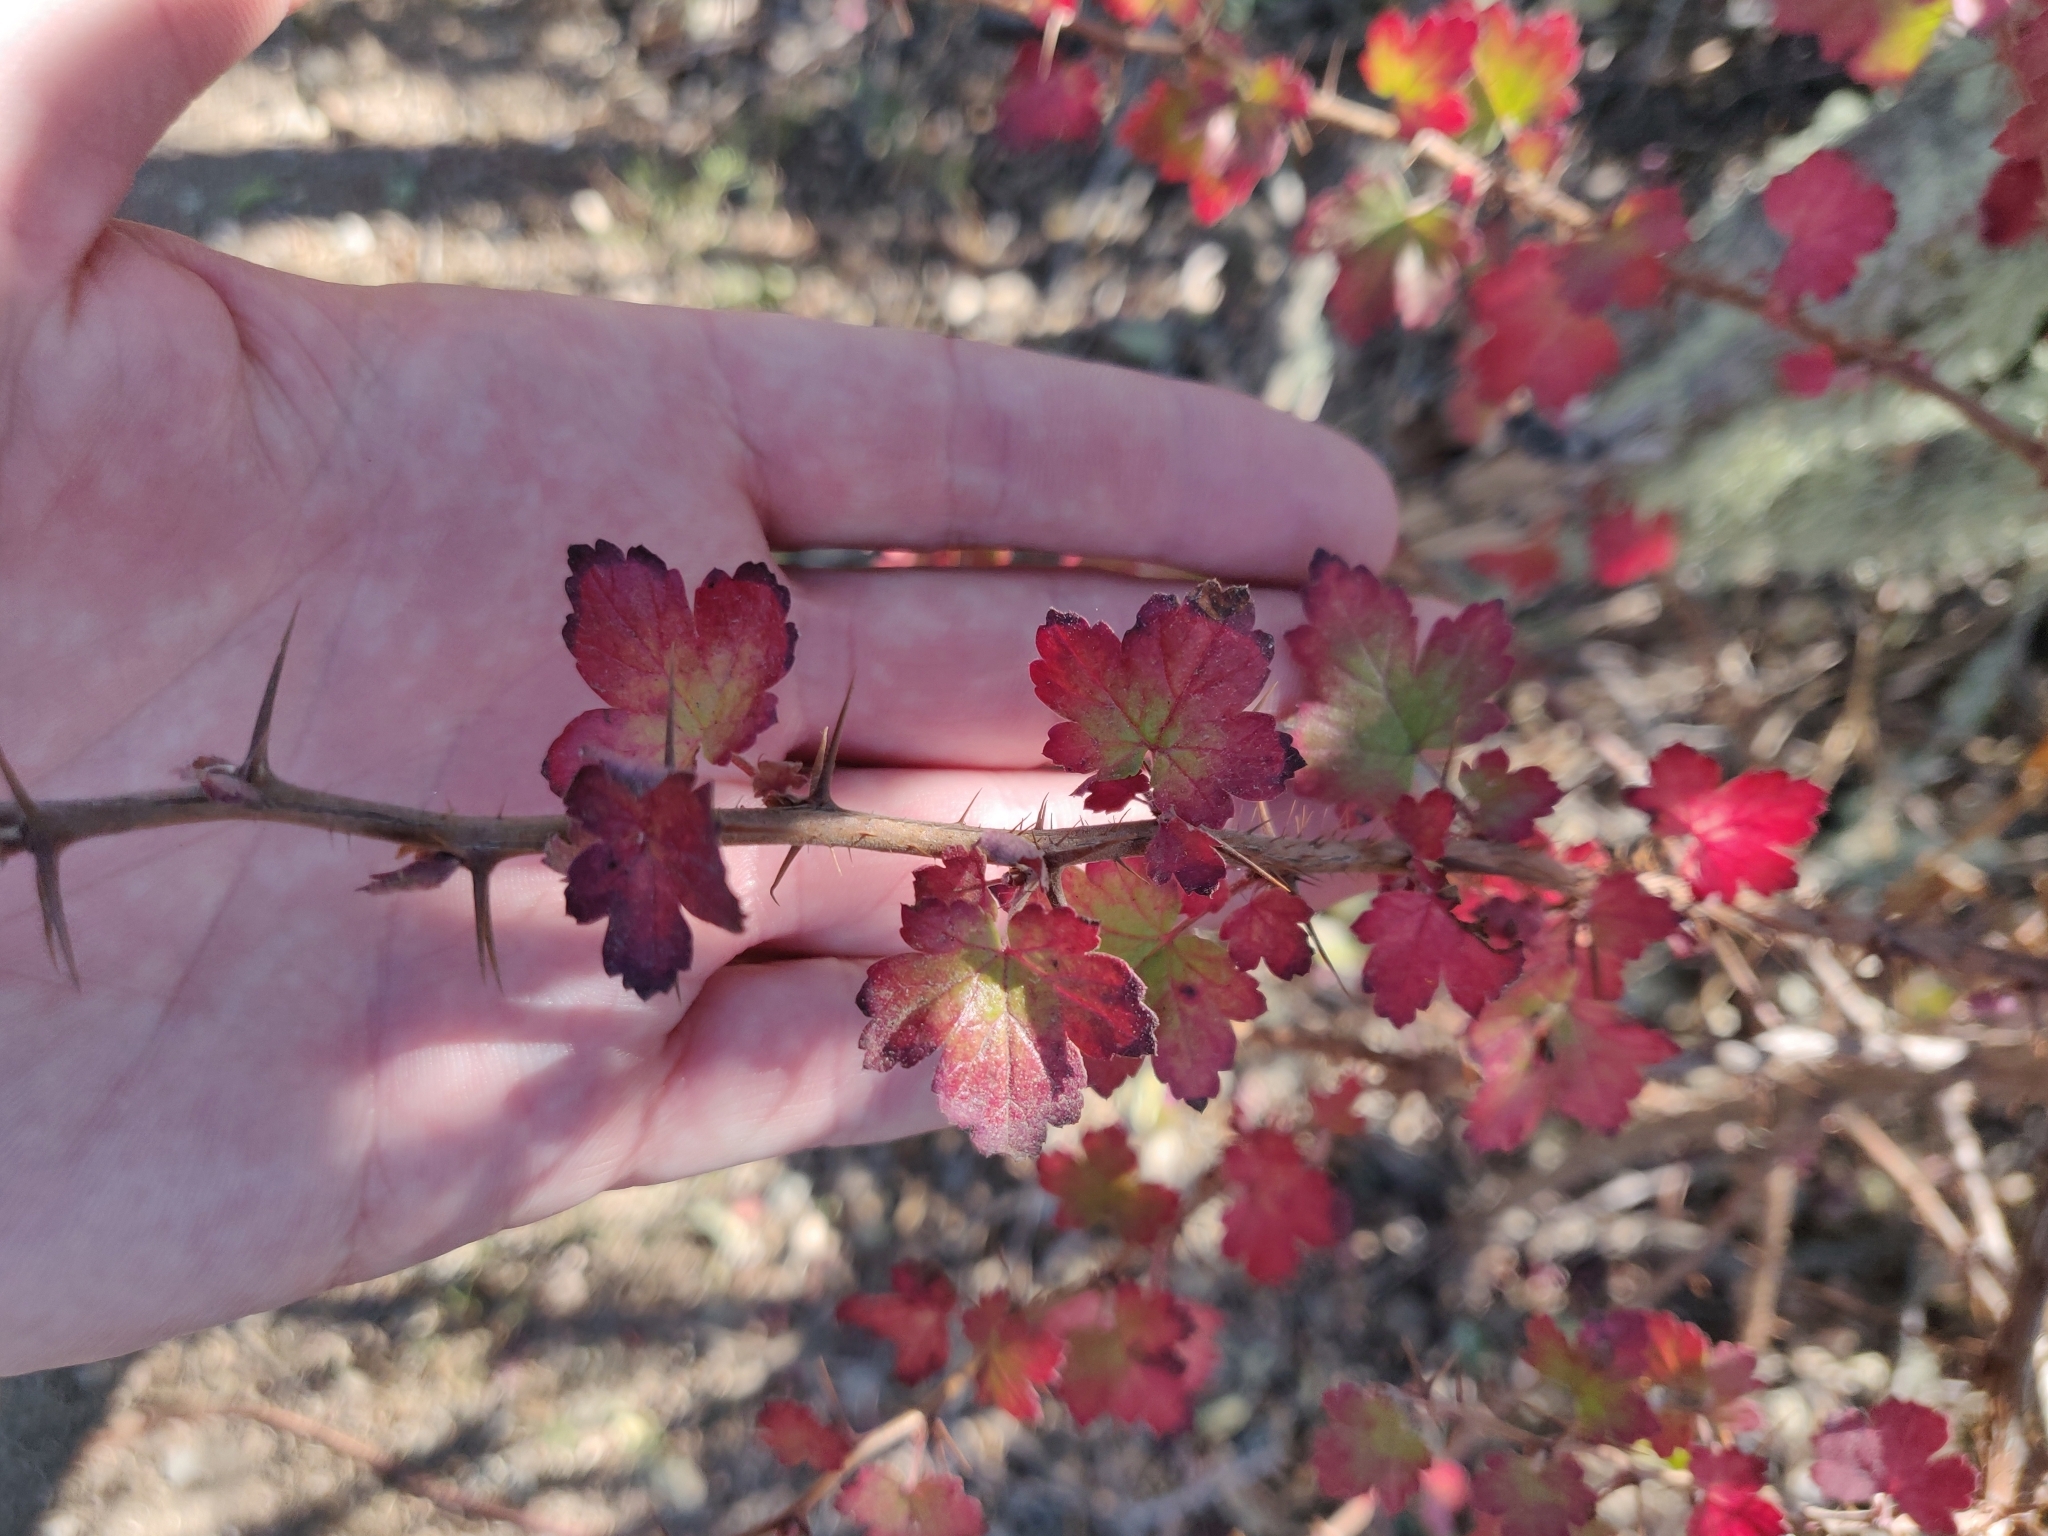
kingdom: Plantae
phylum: Tracheophyta
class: Magnoliopsida
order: Saxifragales
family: Grossulariaceae
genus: Ribes
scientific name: Ribes californicum
